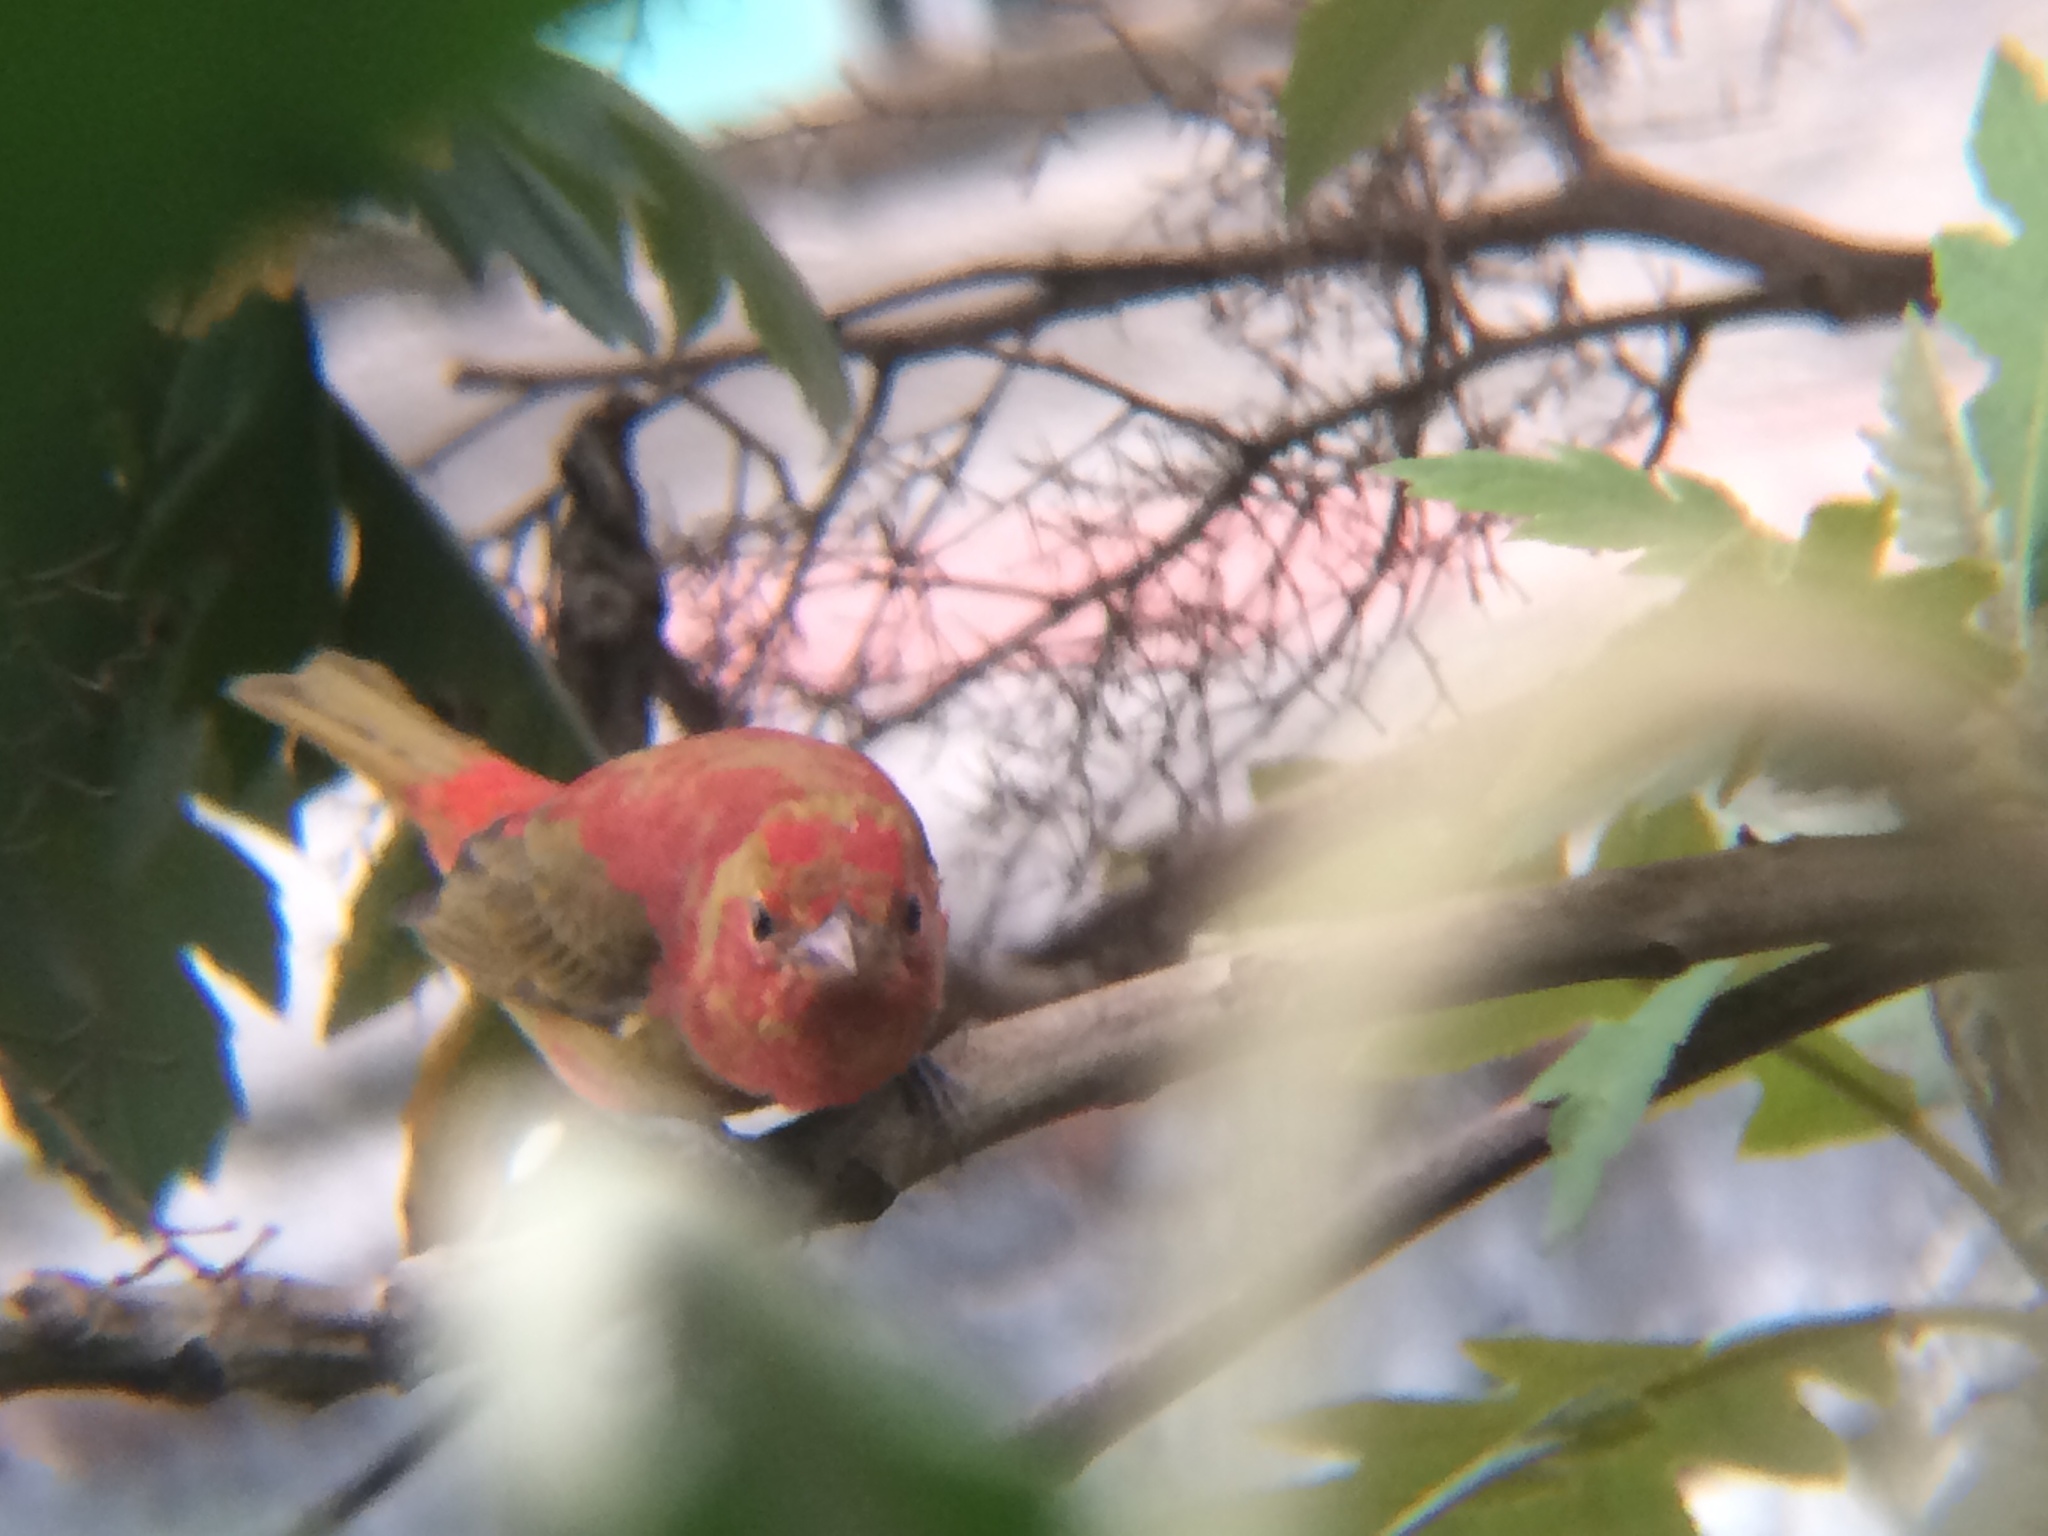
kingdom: Animalia
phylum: Chordata
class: Aves
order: Passeriformes
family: Cardinalidae
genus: Piranga
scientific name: Piranga rubra
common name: Summer tanager
